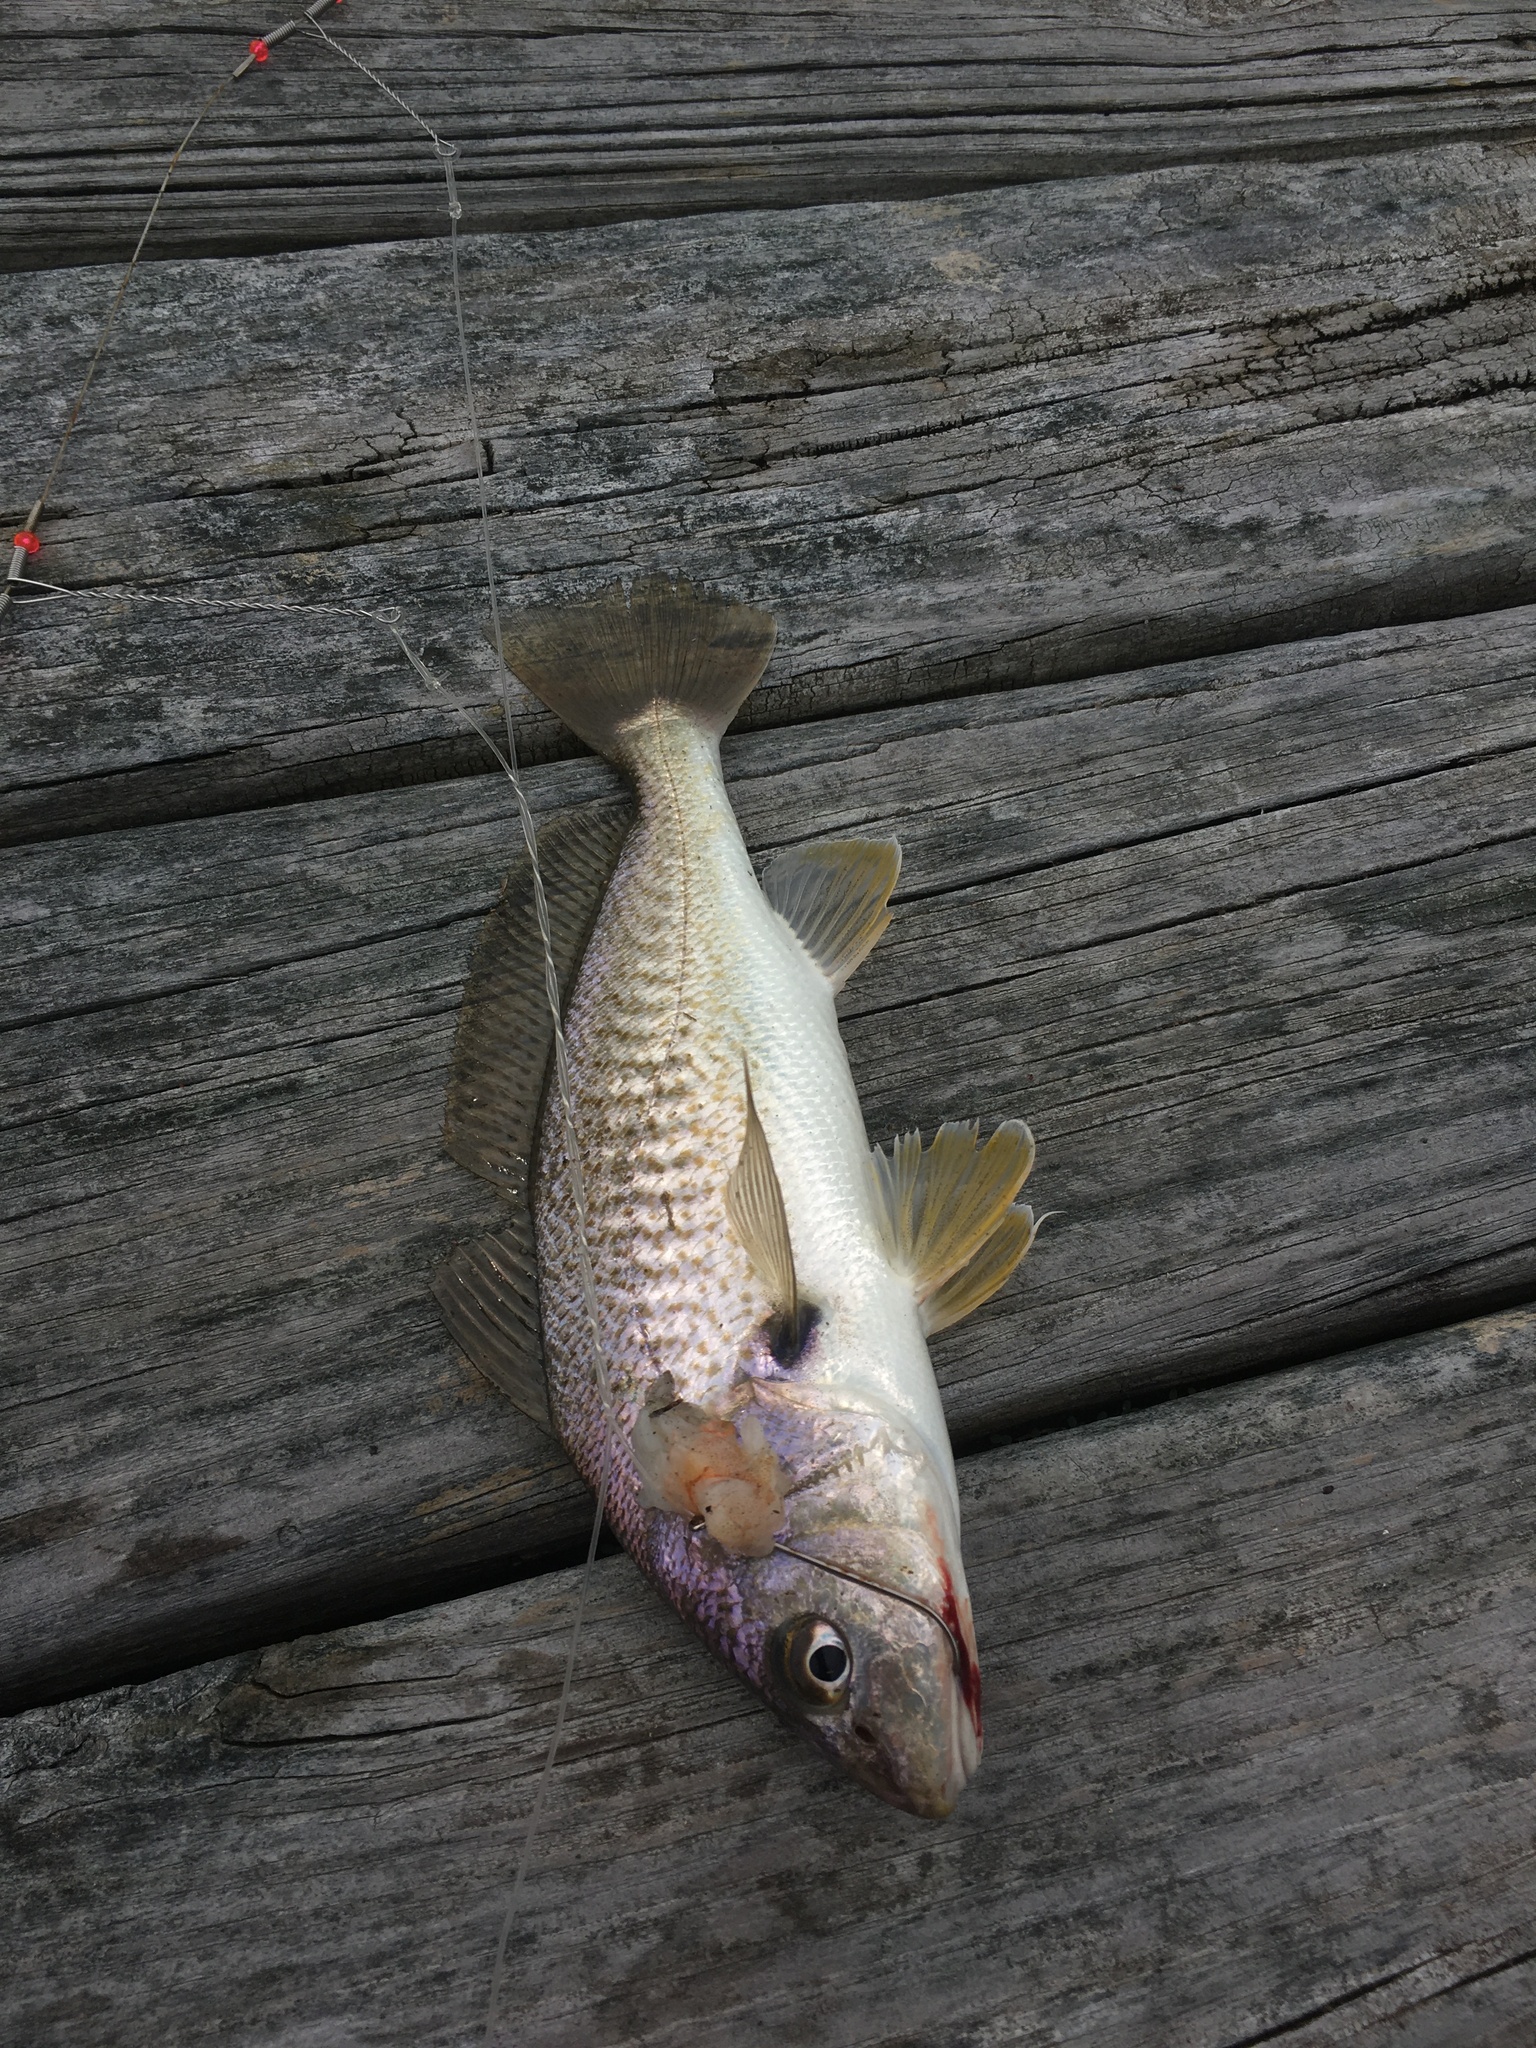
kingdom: Animalia
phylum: Chordata
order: Perciformes
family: Sciaenidae
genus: Micropogonias
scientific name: Micropogonias undulatus
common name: Atlantic croaker
